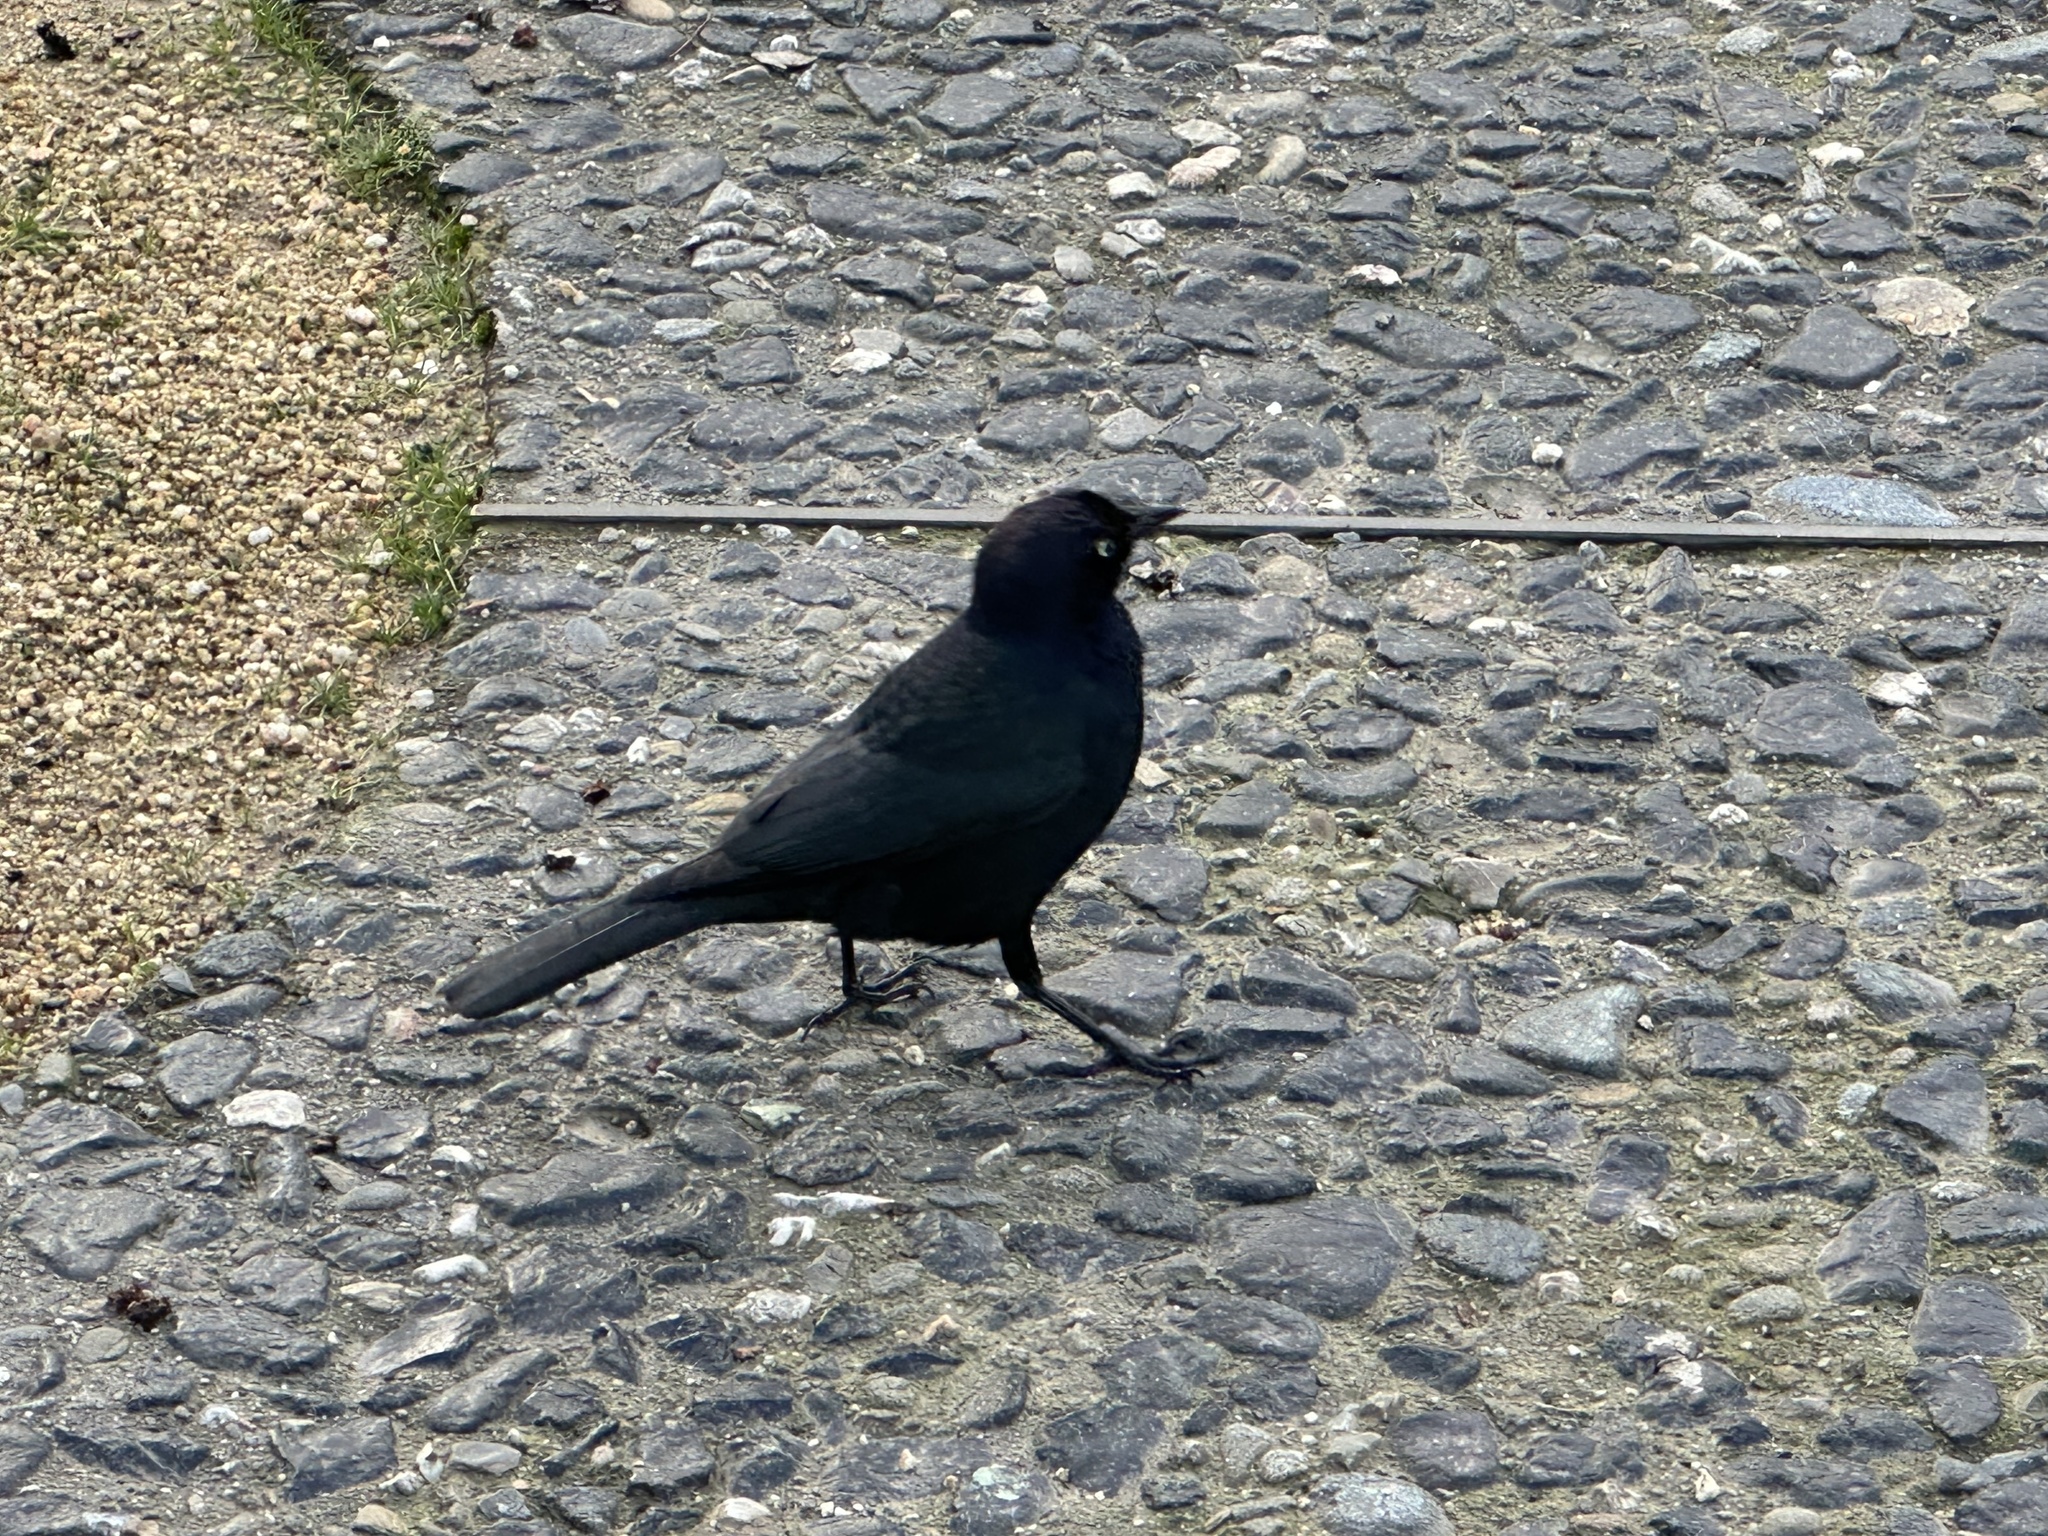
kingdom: Animalia
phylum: Chordata
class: Aves
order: Passeriformes
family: Icteridae
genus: Euphagus
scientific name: Euphagus cyanocephalus
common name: Brewer's blackbird
